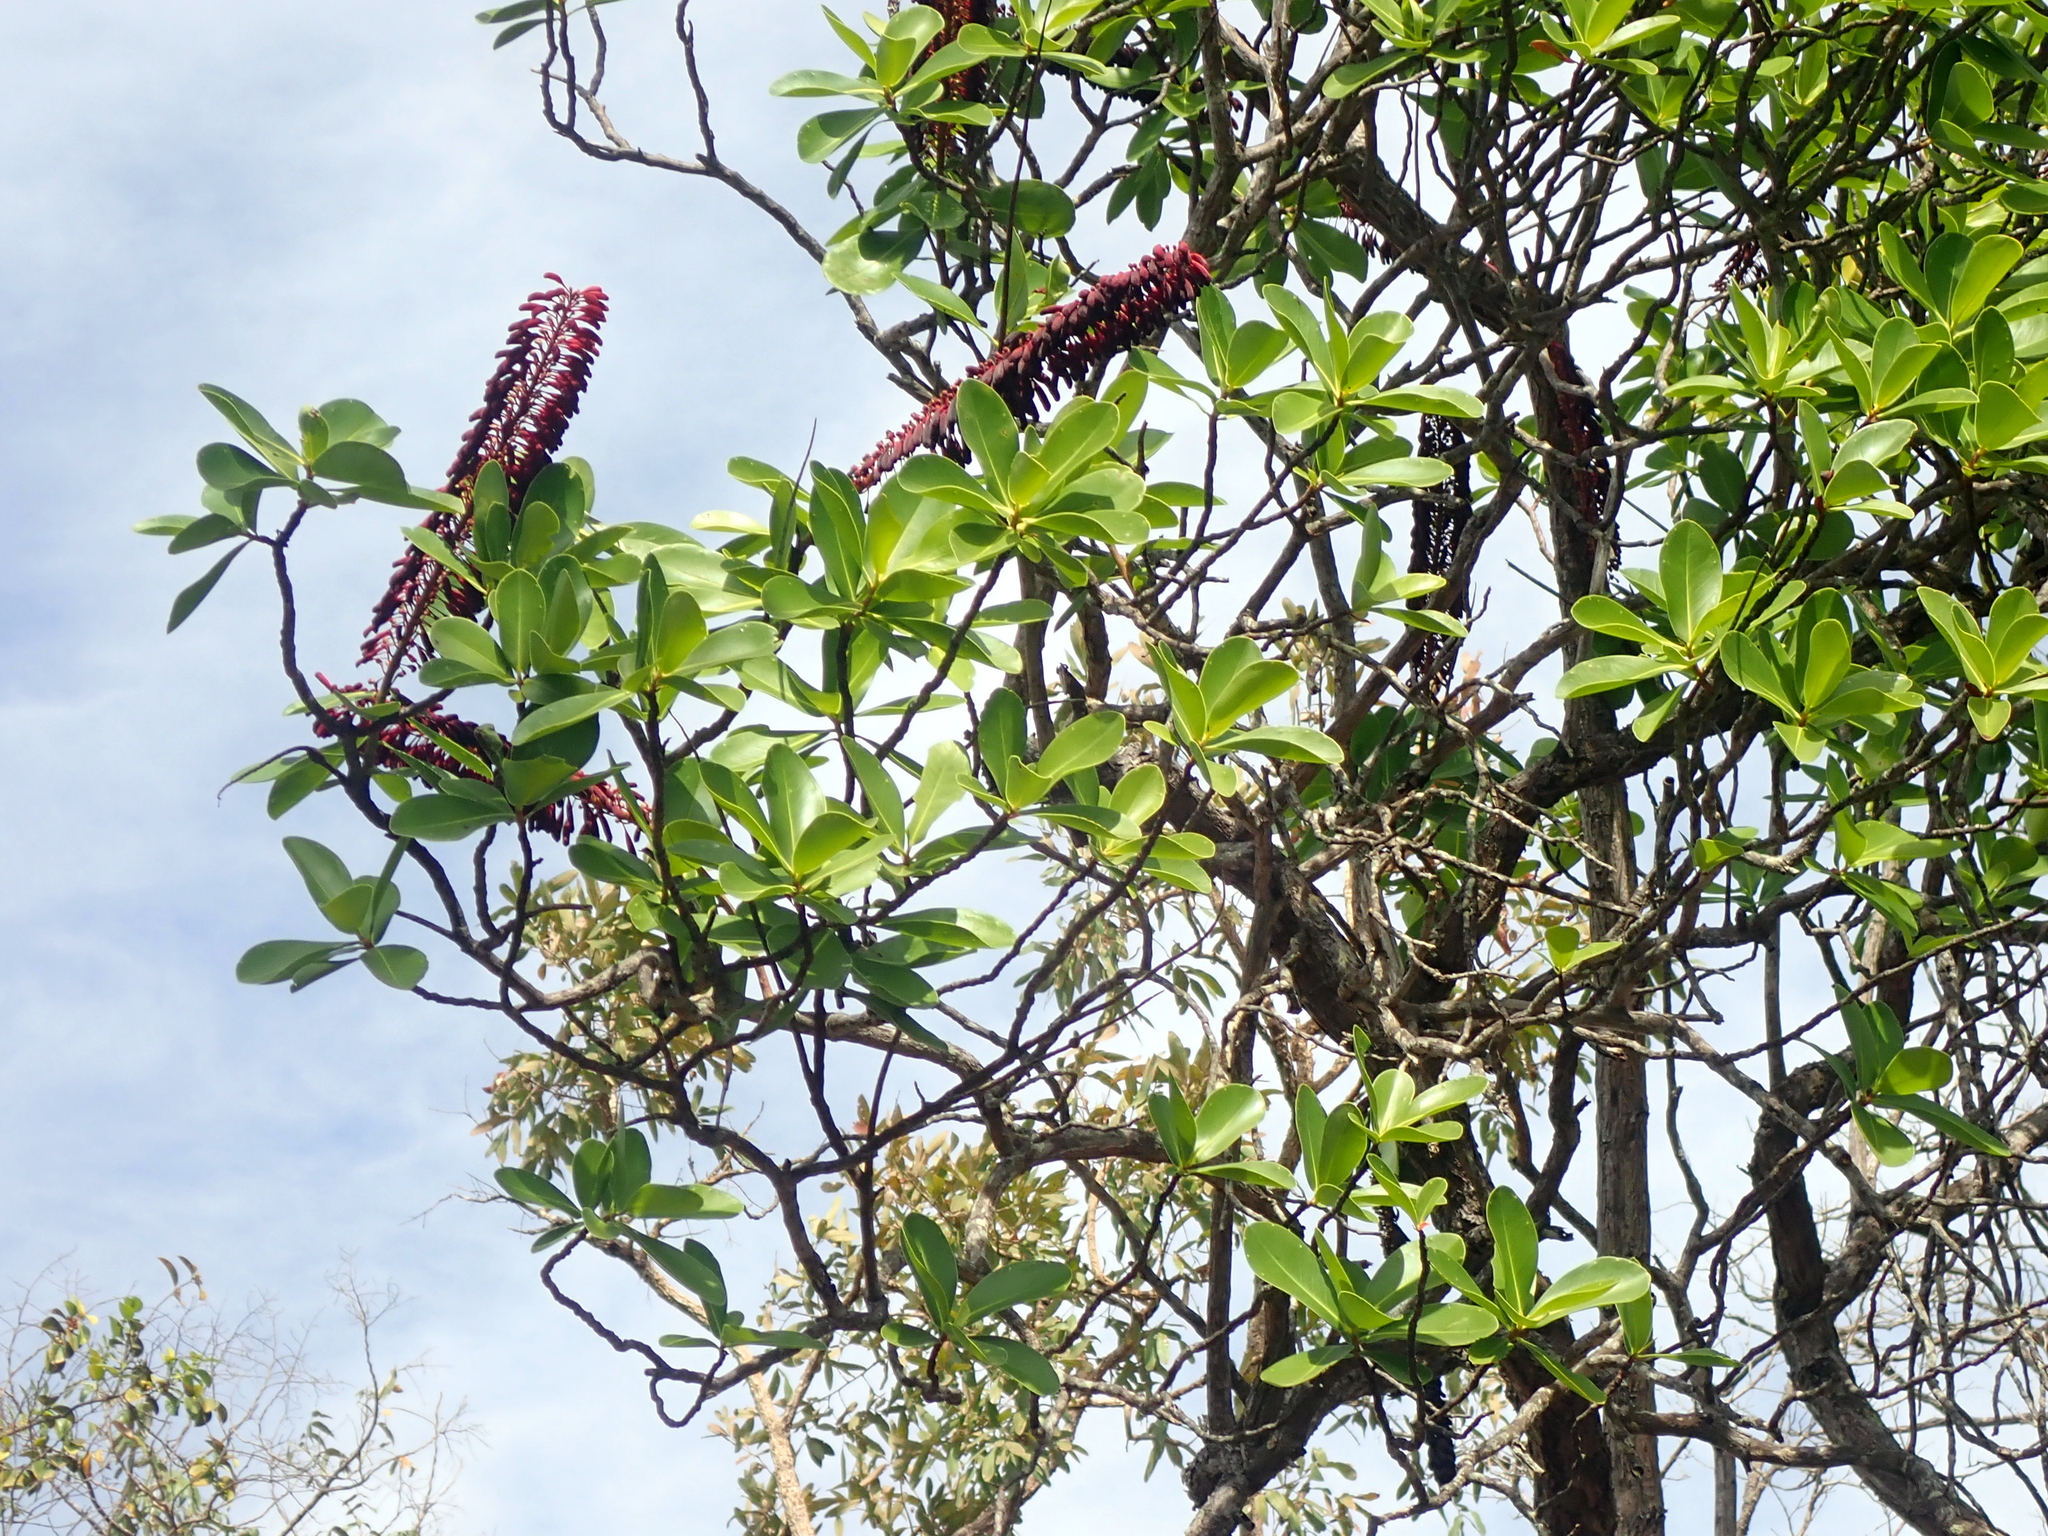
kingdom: Plantae
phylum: Tracheophyta
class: Magnoliopsida
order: Ericales
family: Marcgraviaceae
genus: Norantea
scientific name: Norantea guianensis
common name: Red hot poker vine
